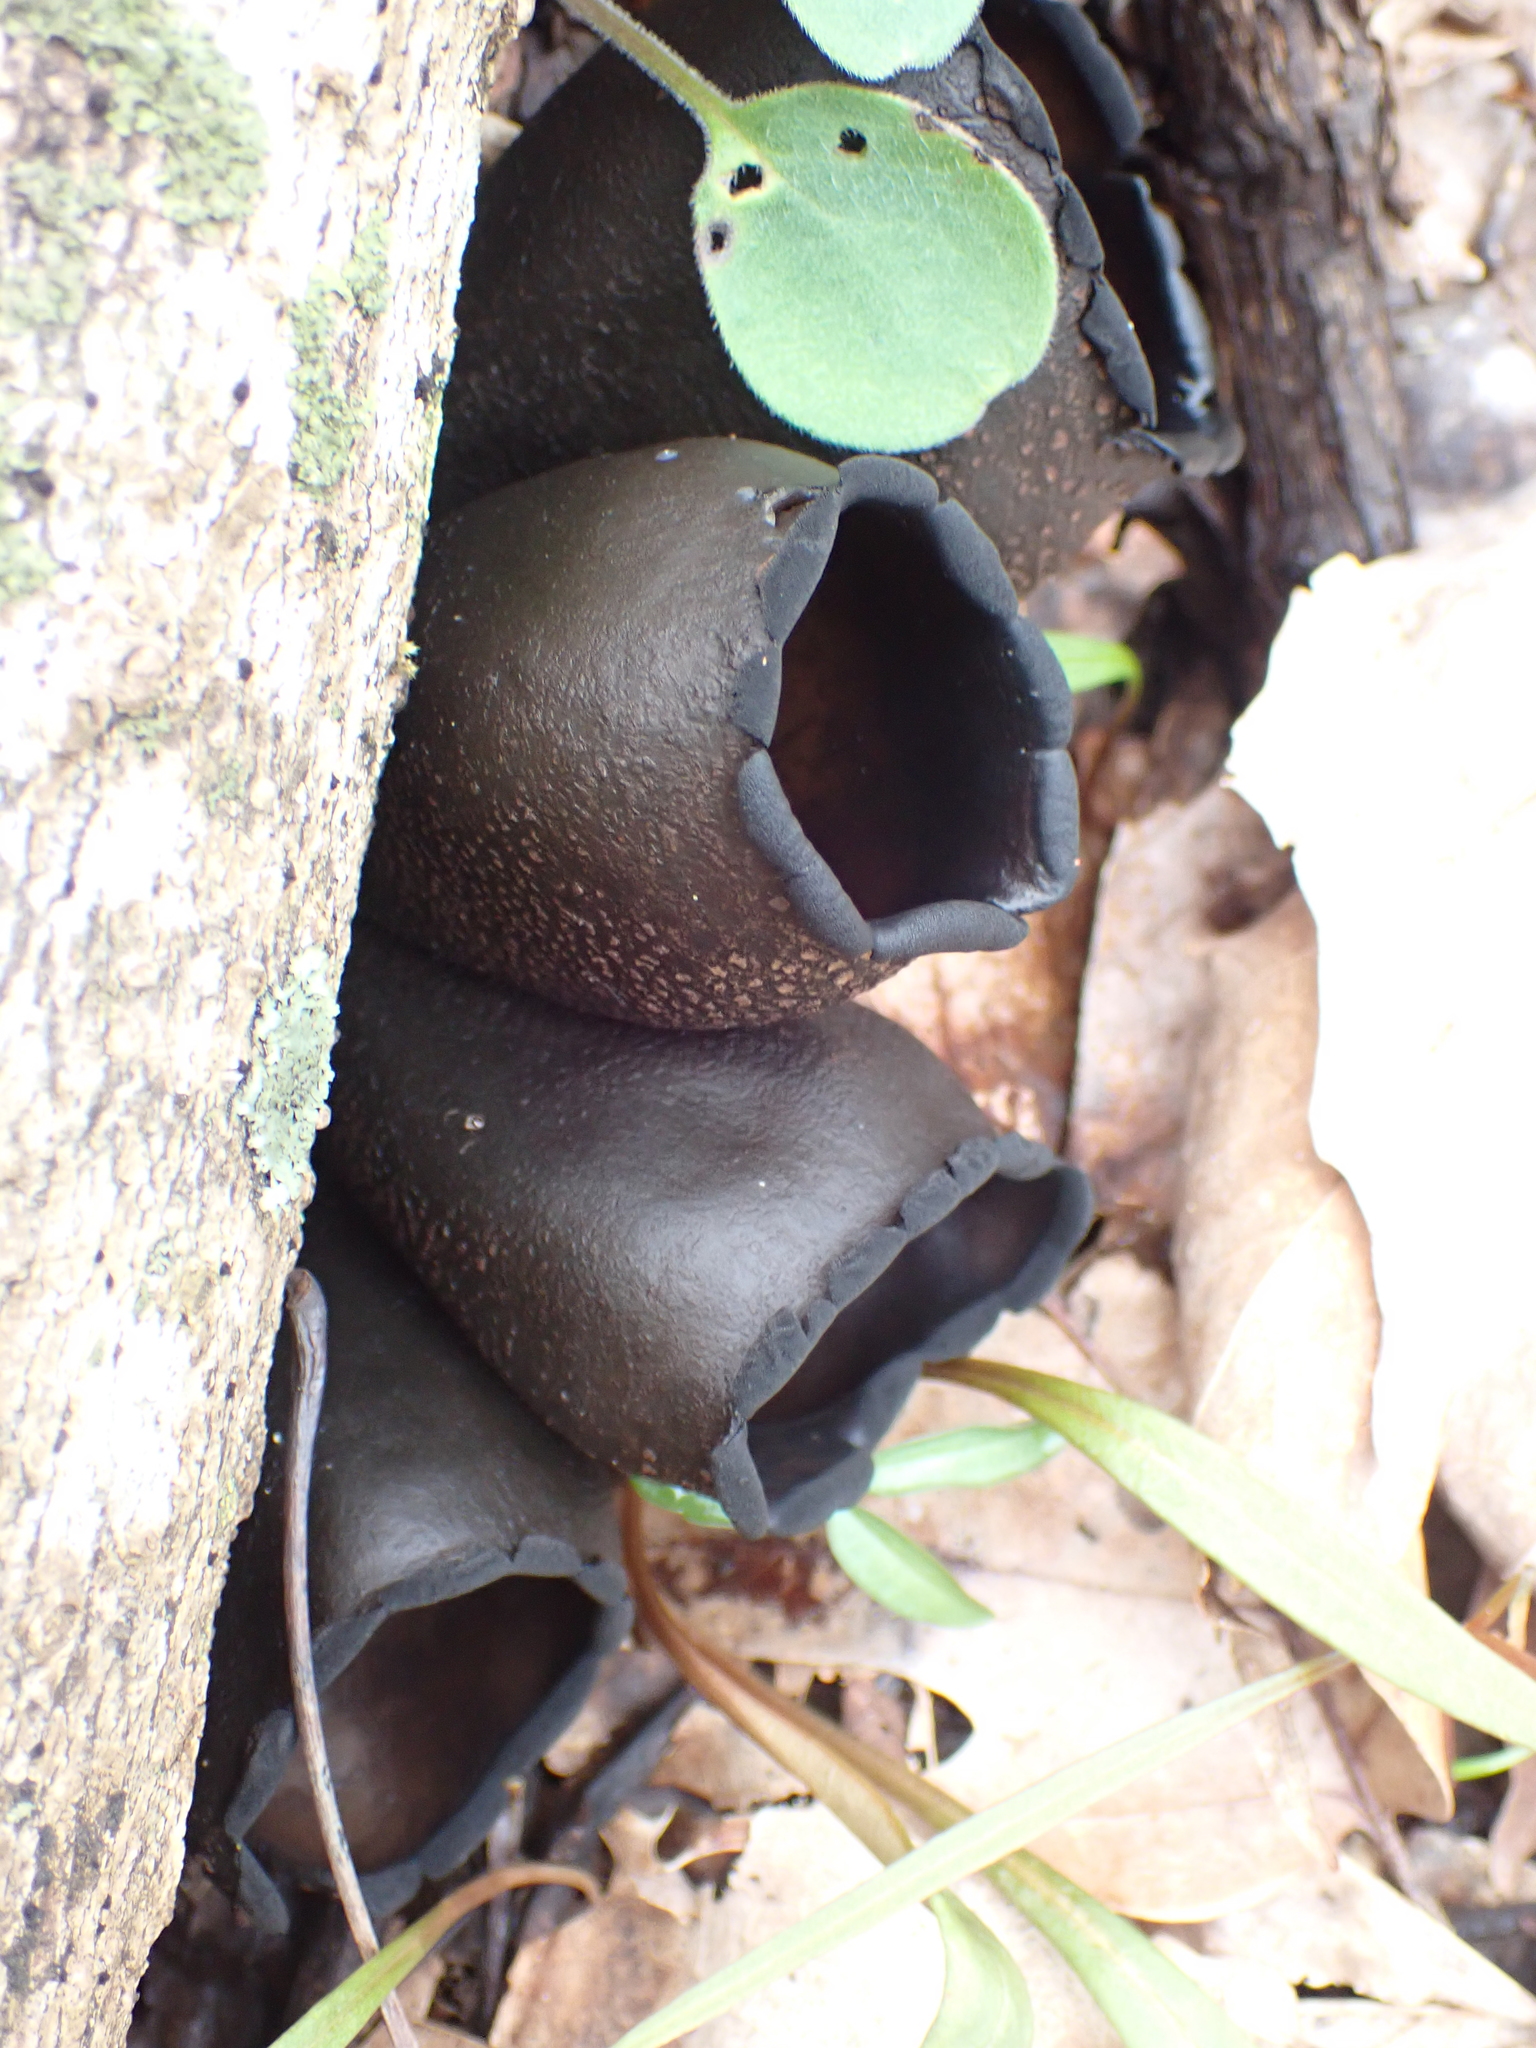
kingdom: Fungi
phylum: Ascomycota
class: Pezizomycetes
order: Pezizales
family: Sarcosomataceae
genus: Urnula
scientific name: Urnula craterium
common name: Devil's urn
